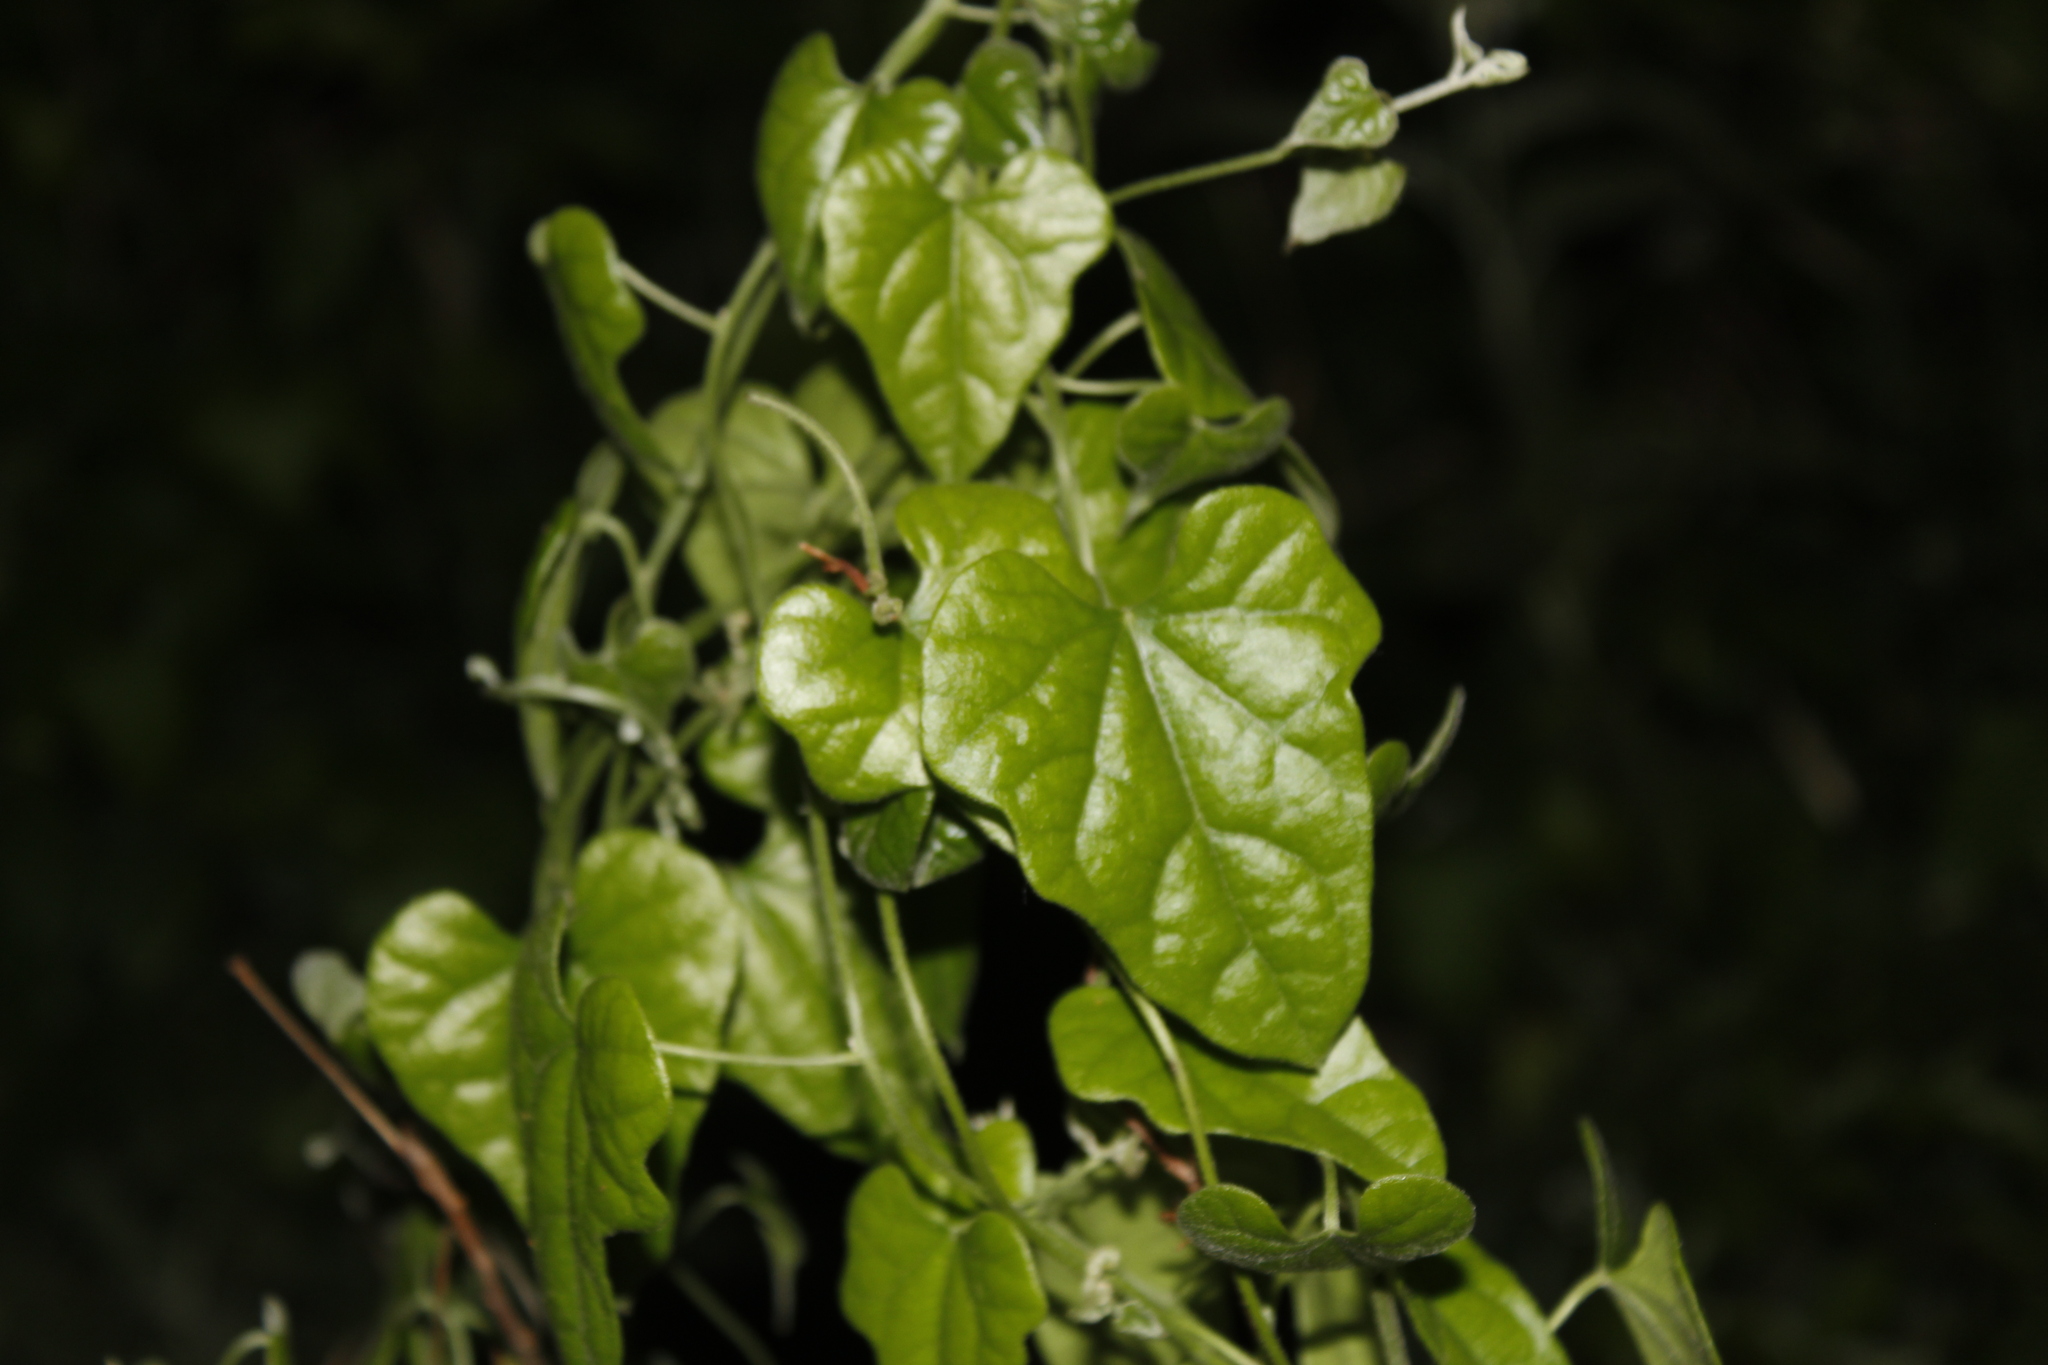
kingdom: Plantae
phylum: Tracheophyta
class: Magnoliopsida
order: Ranunculales
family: Menispermaceae
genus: Cocculus
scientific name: Cocculus carolinus
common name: Carolina moonseed
